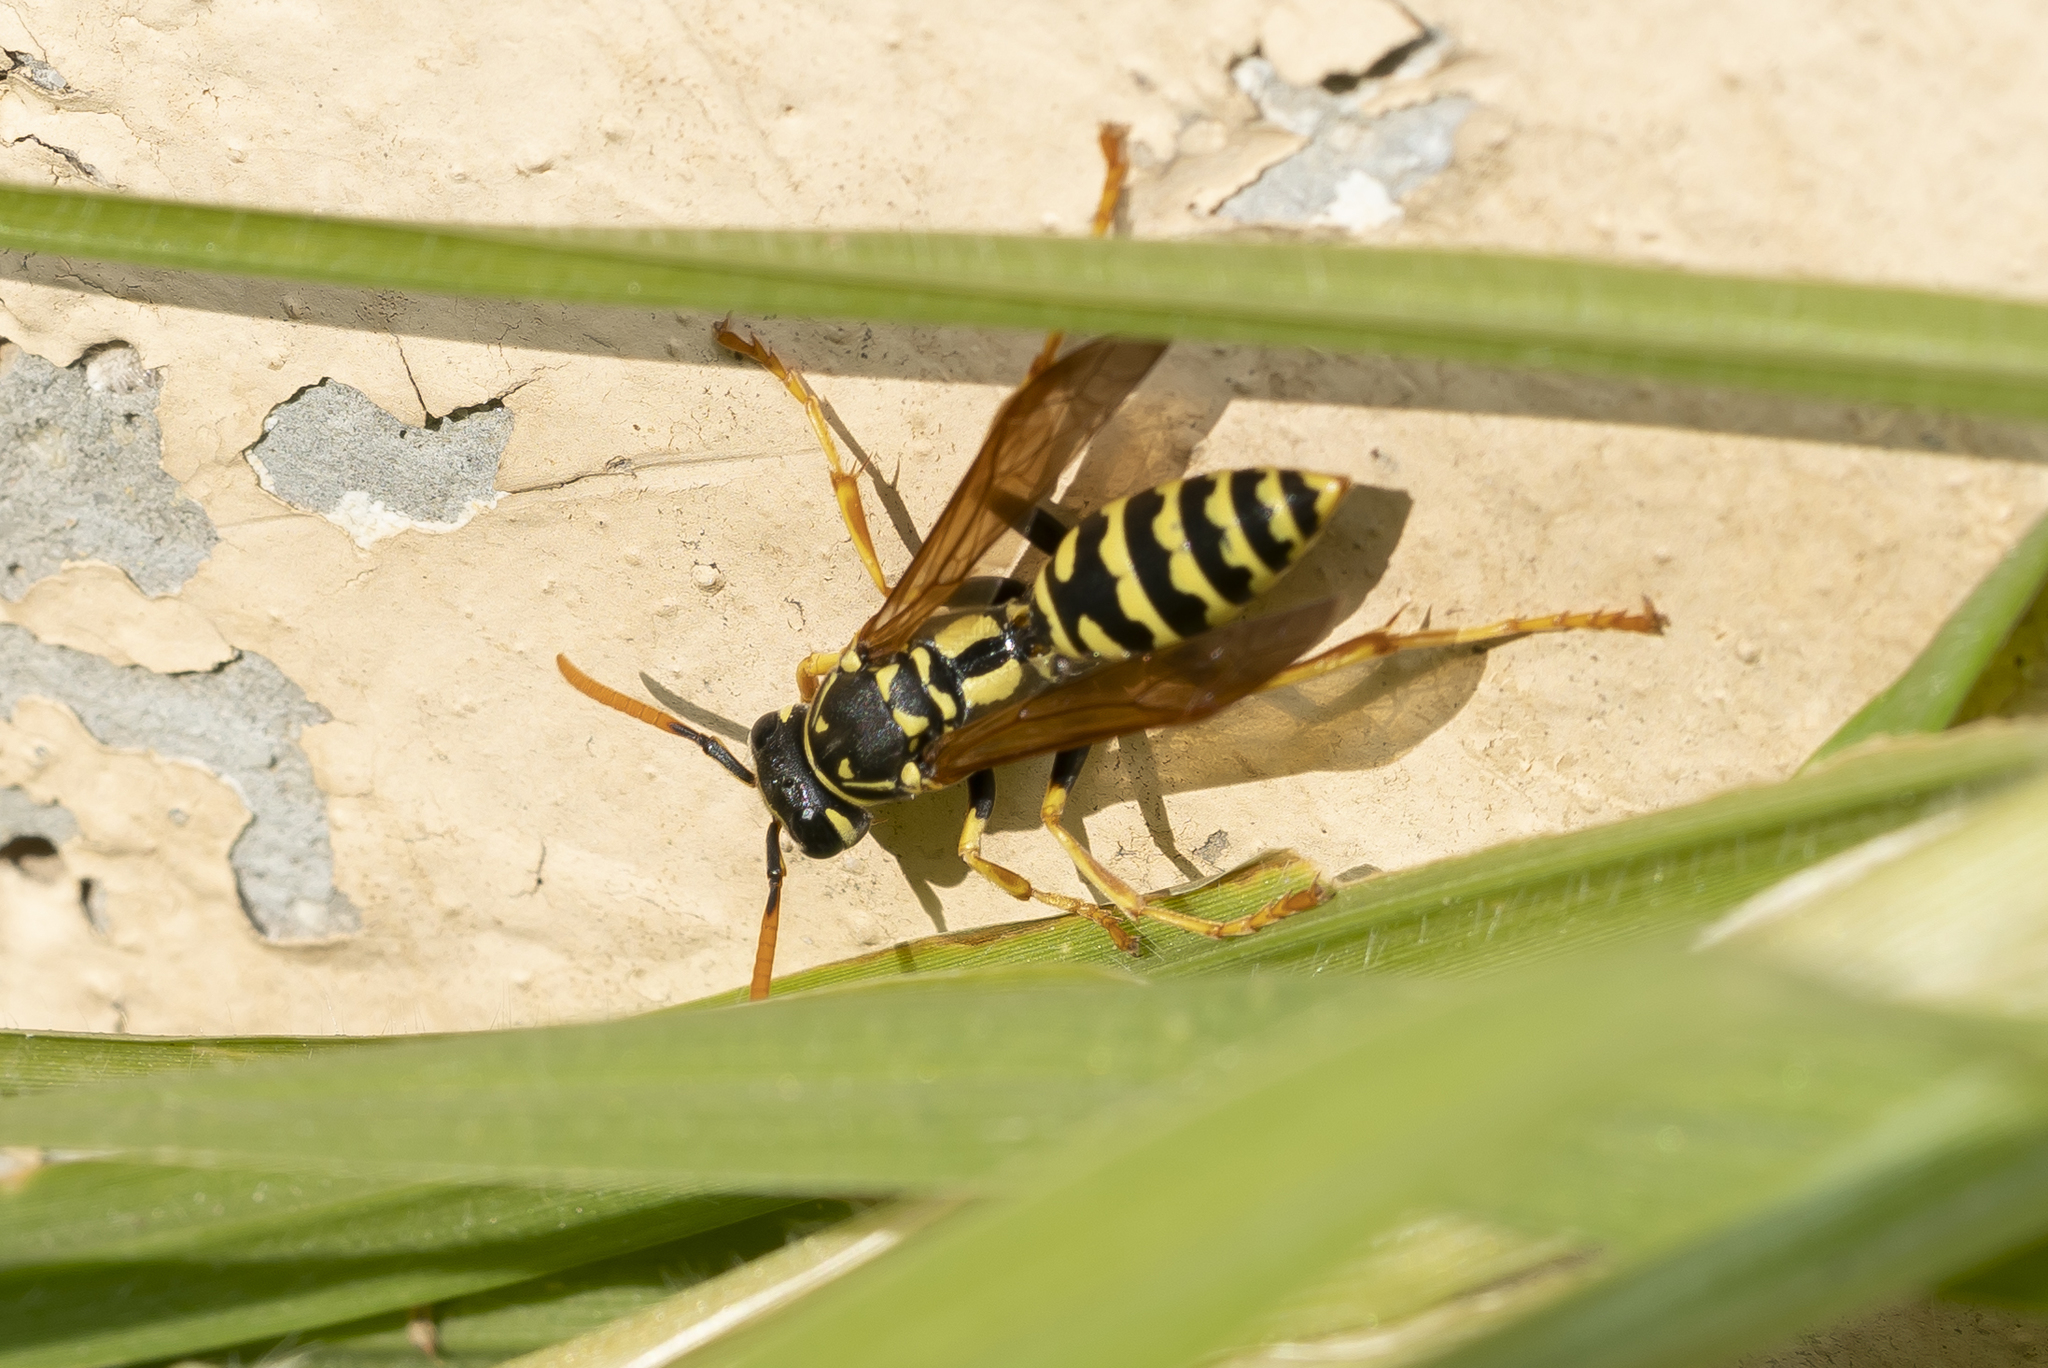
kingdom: Animalia
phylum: Arthropoda
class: Insecta
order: Hymenoptera
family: Eumenidae
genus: Polistes
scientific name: Polistes dominula
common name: Paper wasp
